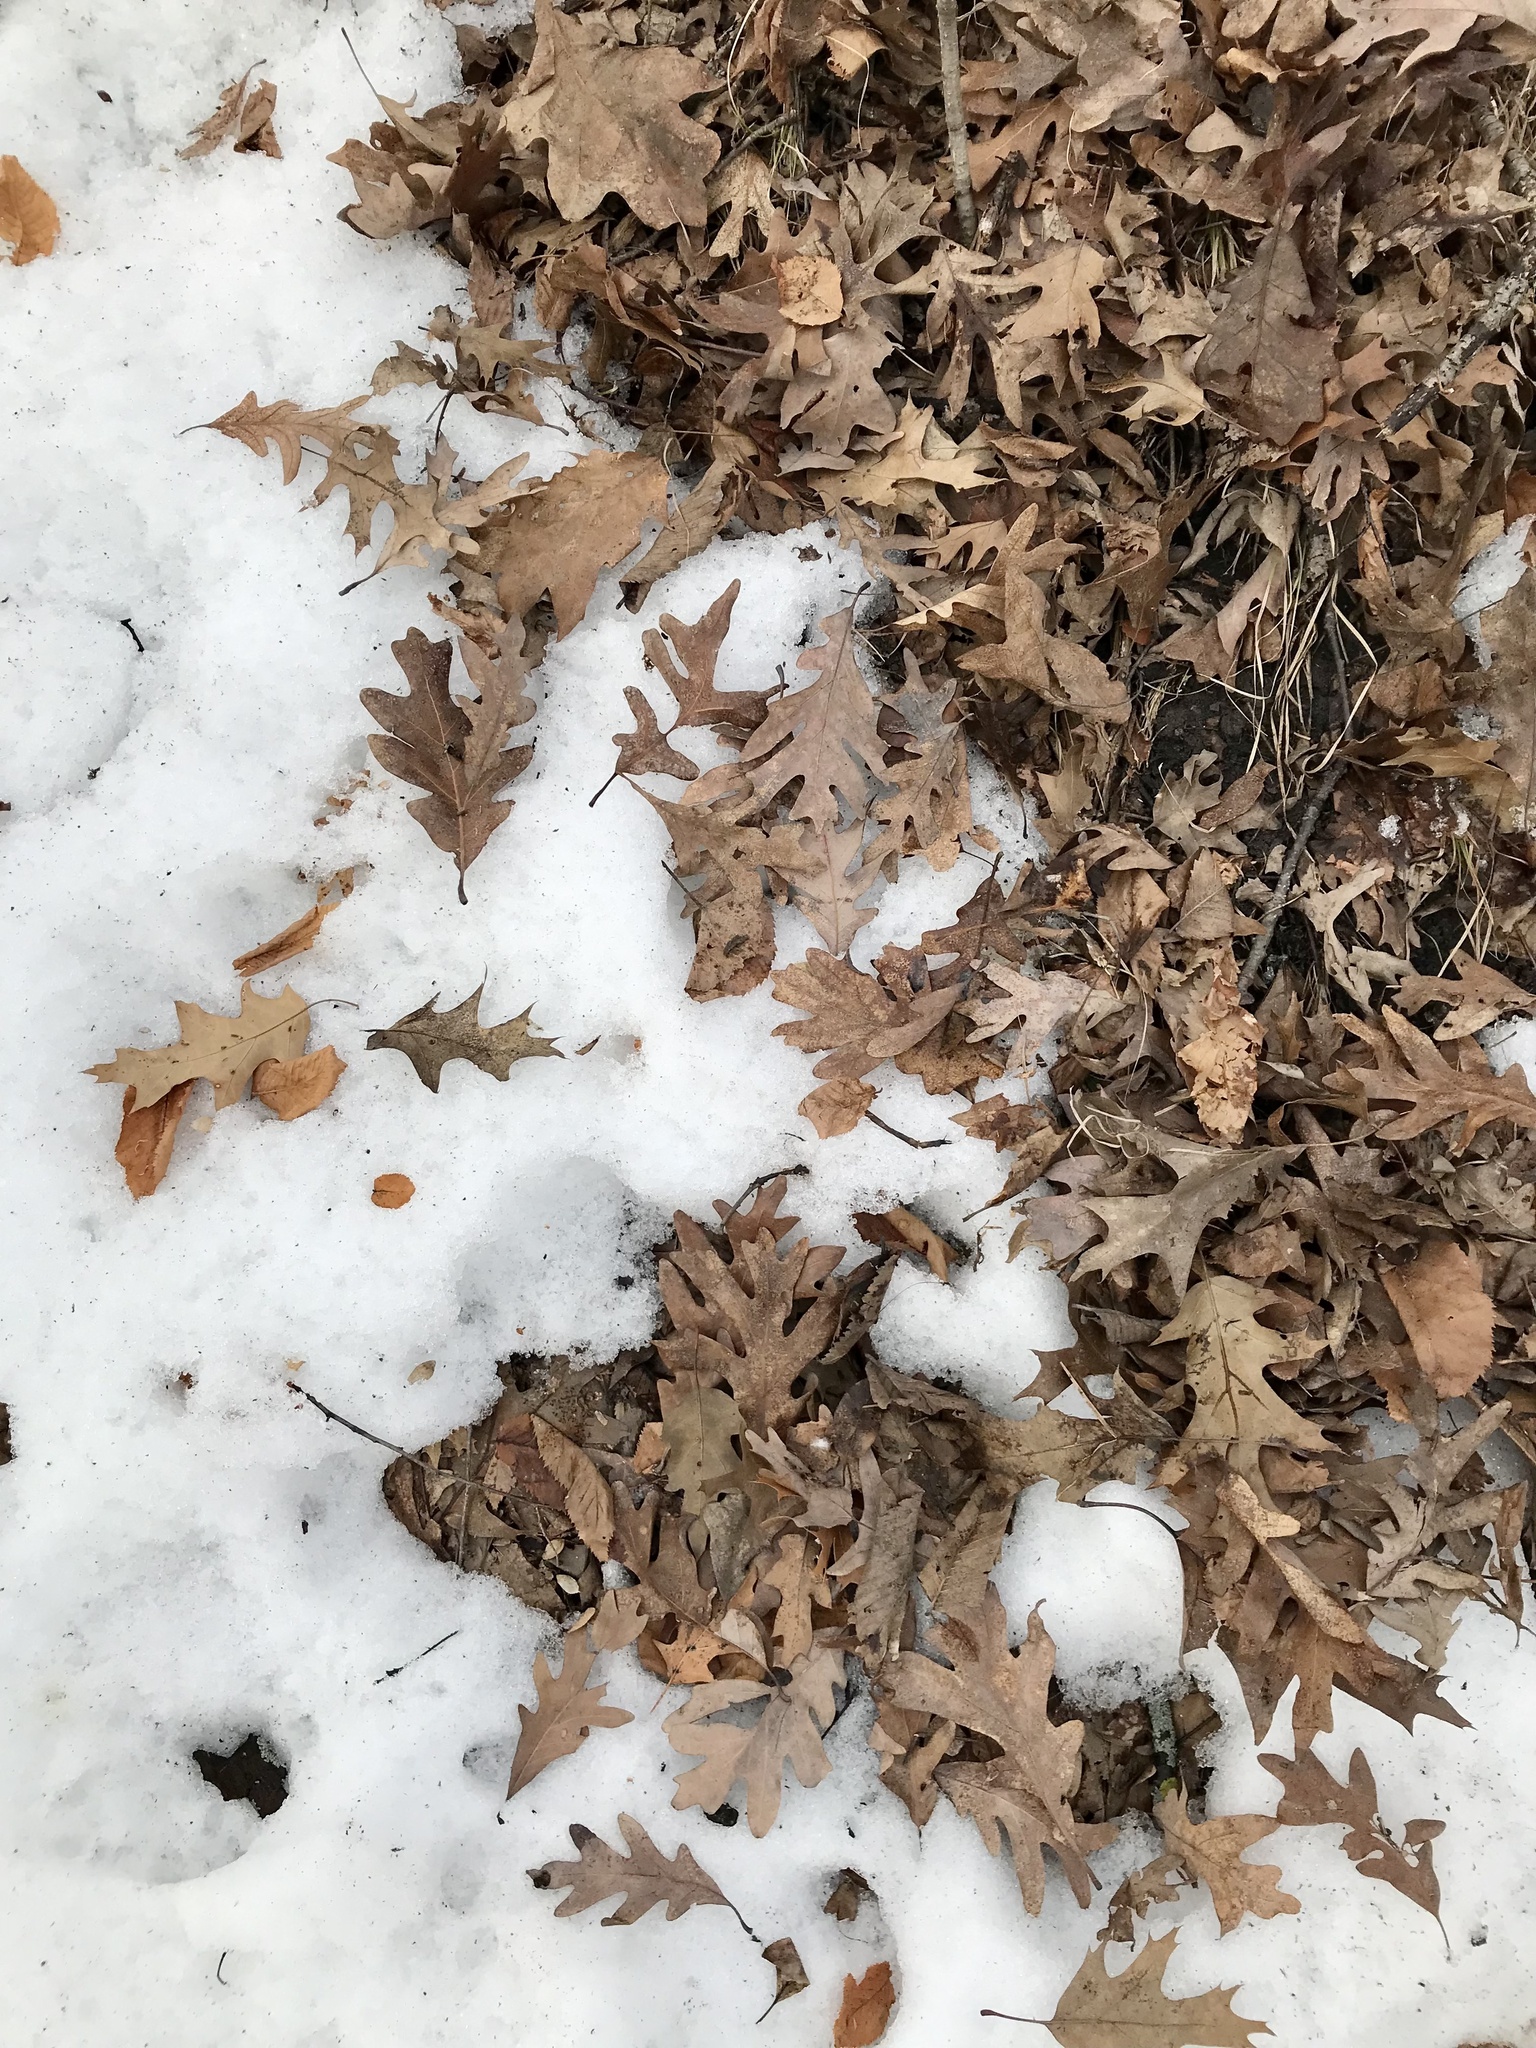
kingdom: Plantae
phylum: Tracheophyta
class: Magnoliopsida
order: Fagales
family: Fagaceae
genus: Quercus
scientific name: Quercus alba
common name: White oak
